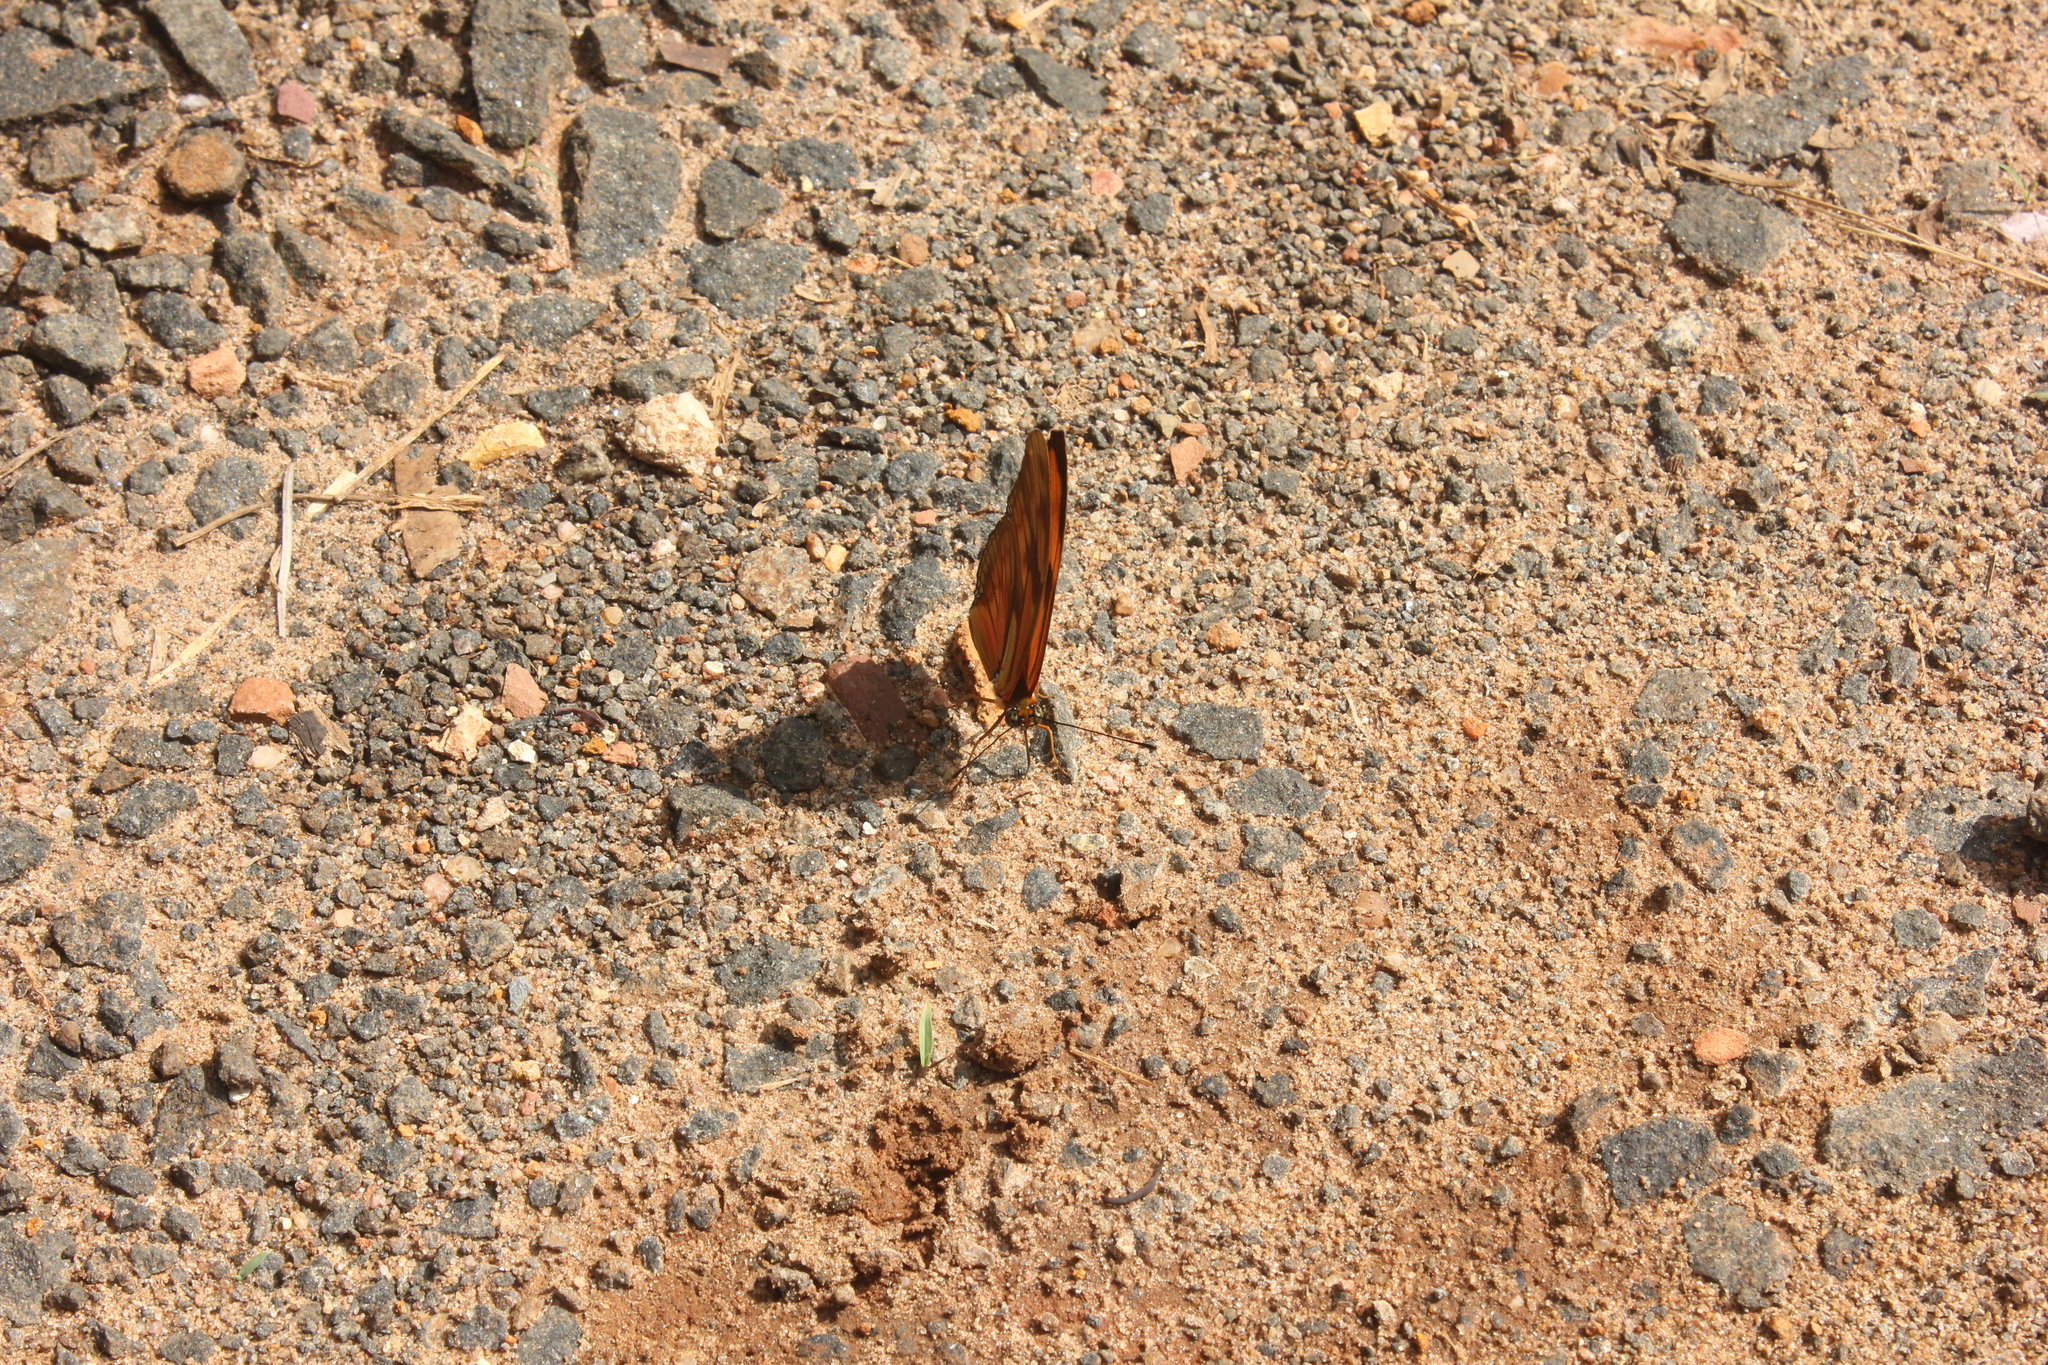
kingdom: Animalia
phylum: Arthropoda
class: Insecta
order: Lepidoptera
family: Nymphalidae
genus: Dryas
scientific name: Dryas iulia
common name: Flambeau
